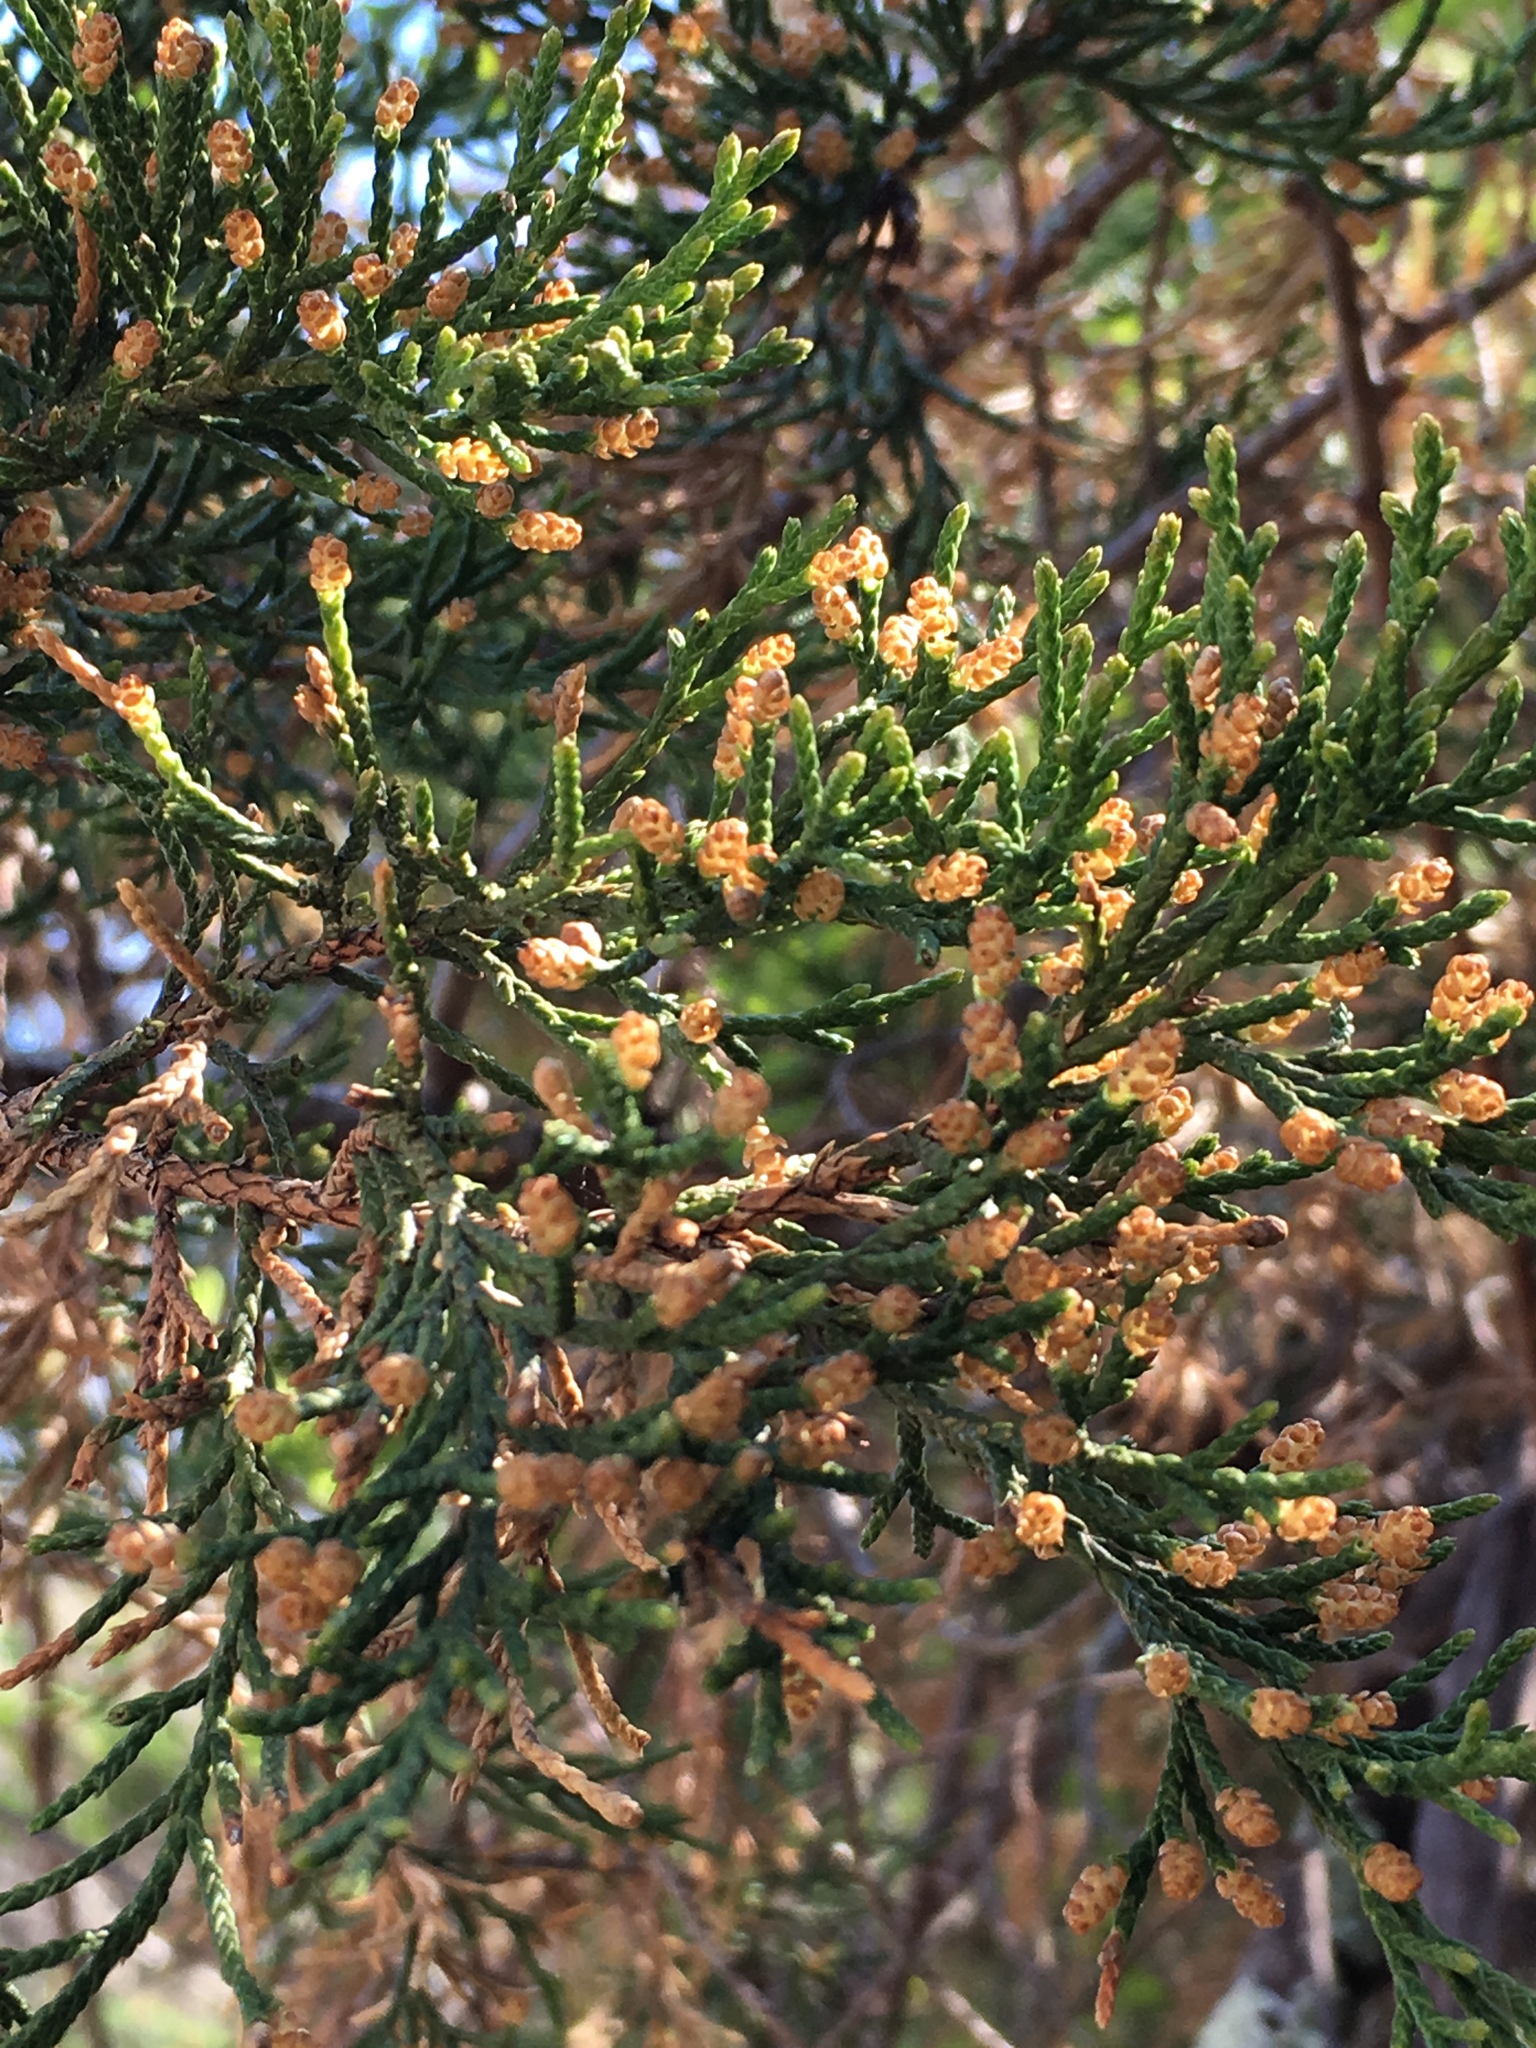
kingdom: Plantae
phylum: Tracheophyta
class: Pinopsida
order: Pinales
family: Cupressaceae
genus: Juniperus
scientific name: Juniperus virginiana
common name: Red juniper
